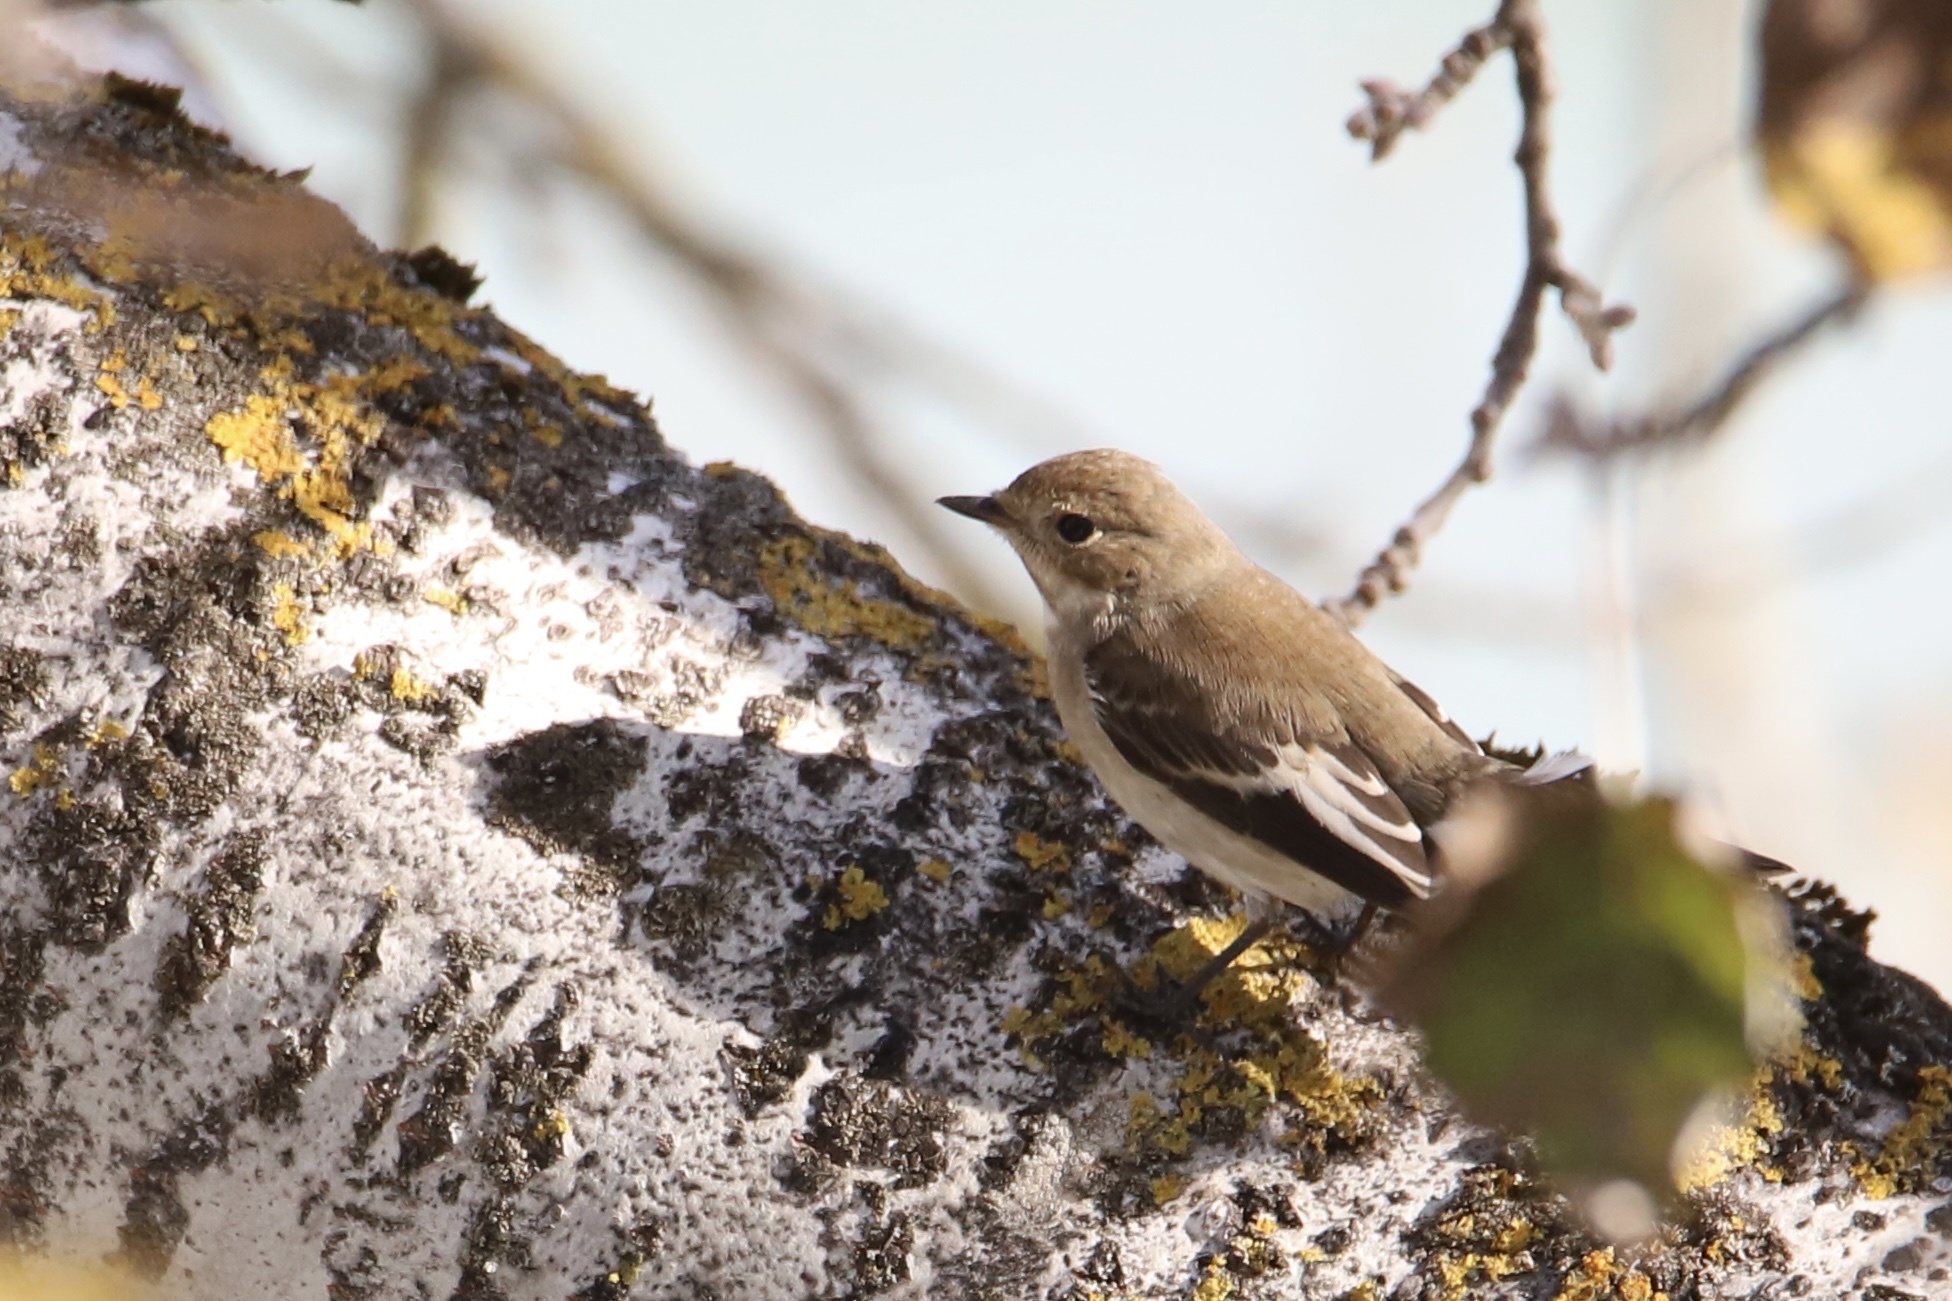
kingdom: Animalia
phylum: Chordata
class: Aves
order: Passeriformes
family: Muscicapidae
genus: Ficedula
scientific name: Ficedula hypoleuca
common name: European pied flycatcher
